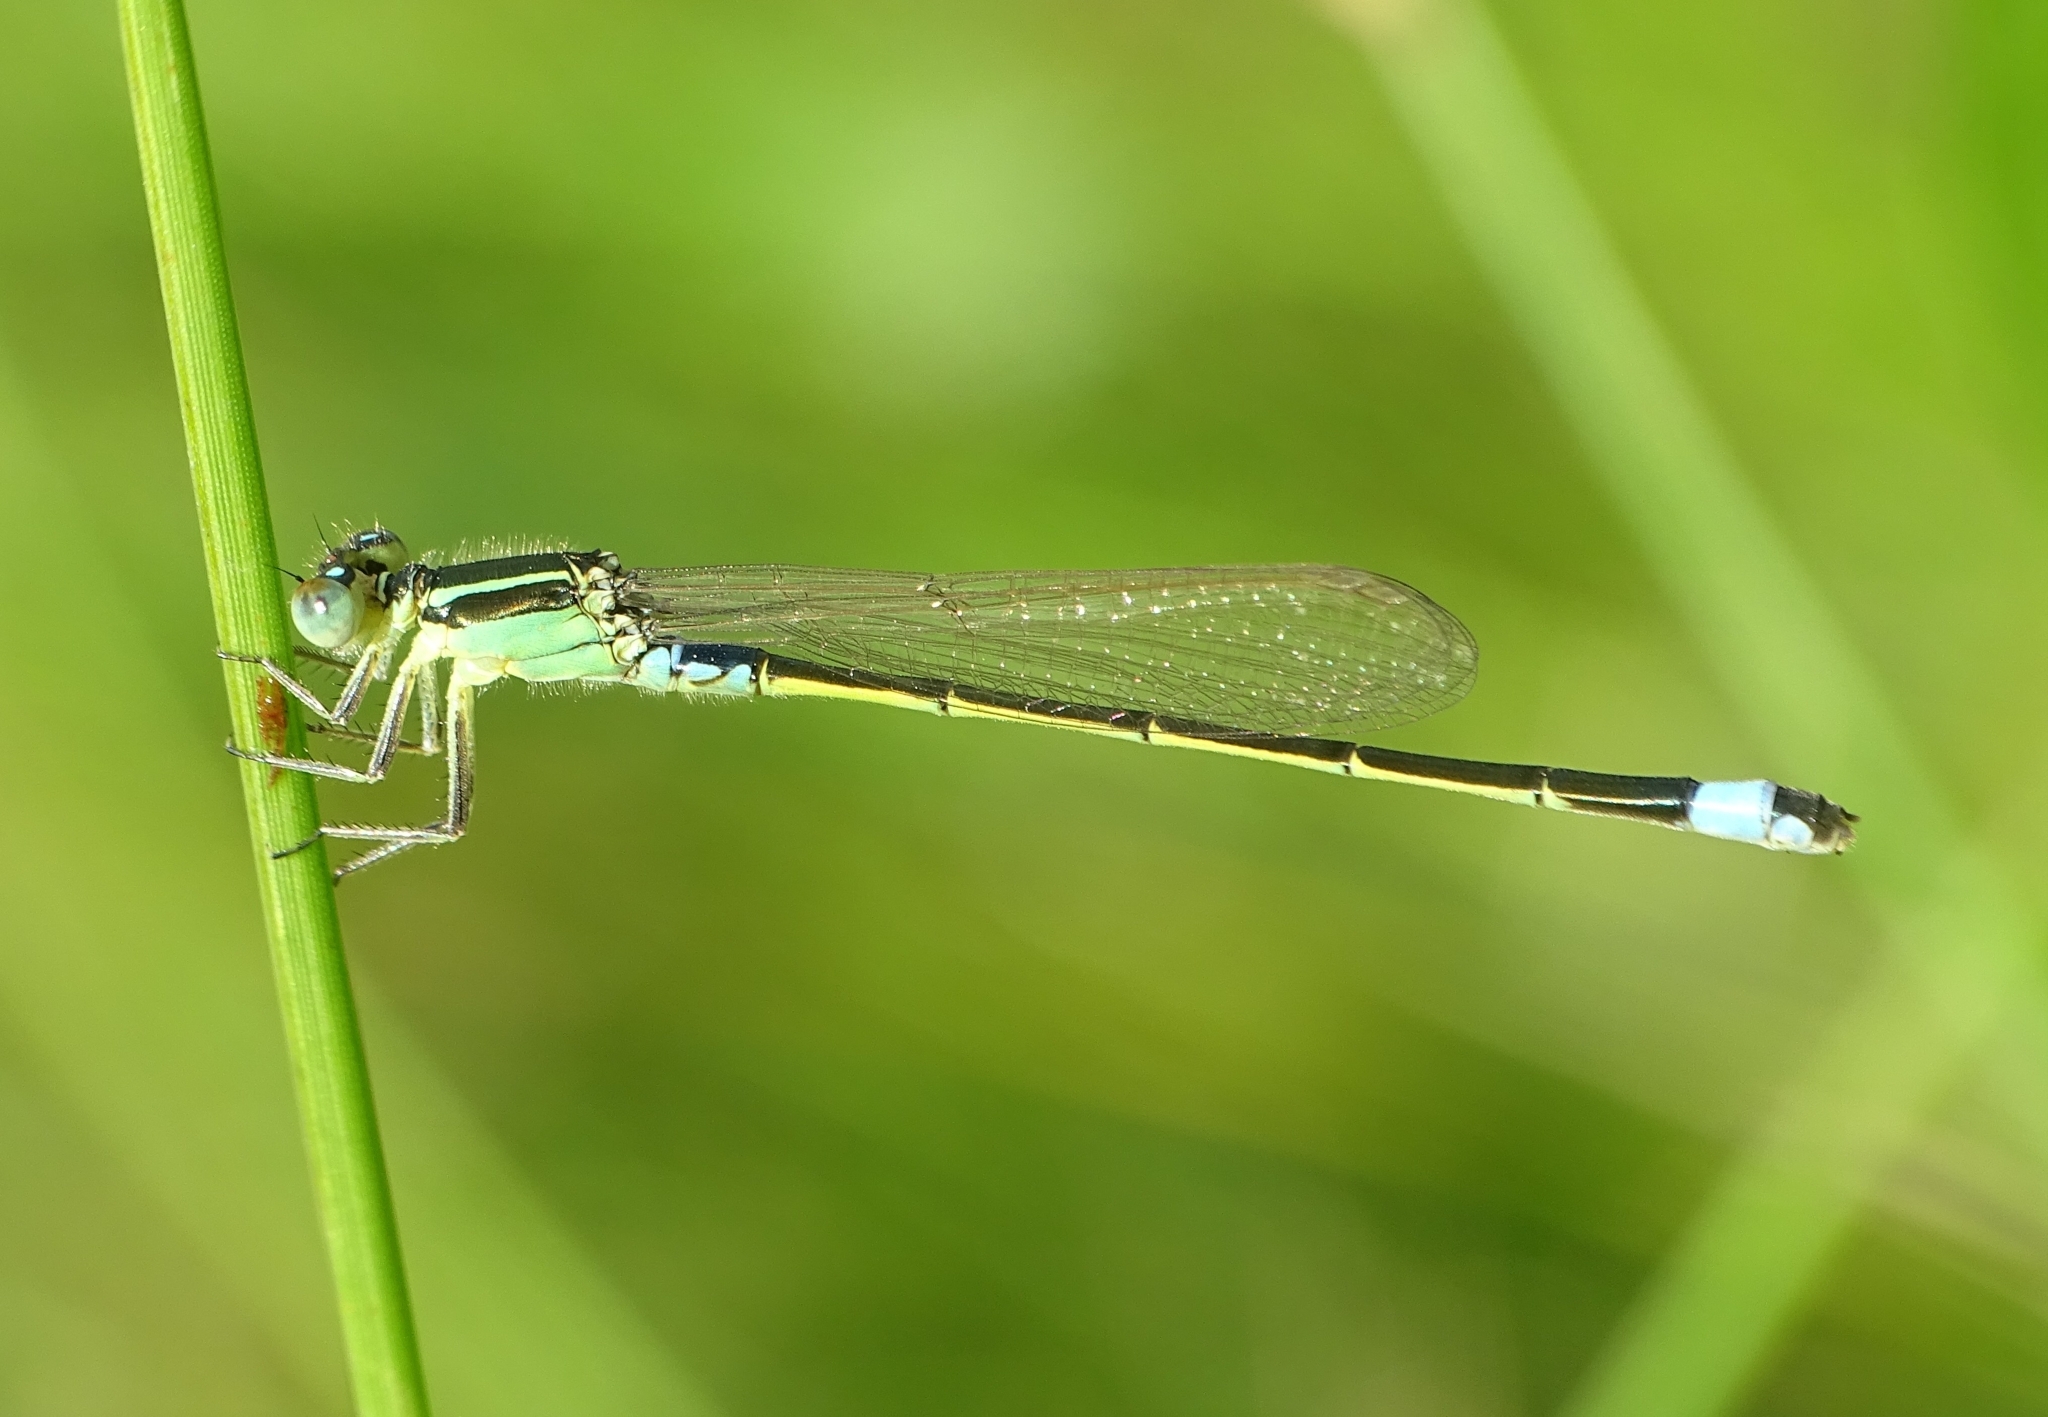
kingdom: Animalia
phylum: Arthropoda
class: Insecta
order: Odonata
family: Coenagrionidae
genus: Ischnura
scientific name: Ischnura senegalensis
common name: Tropical bluetail
